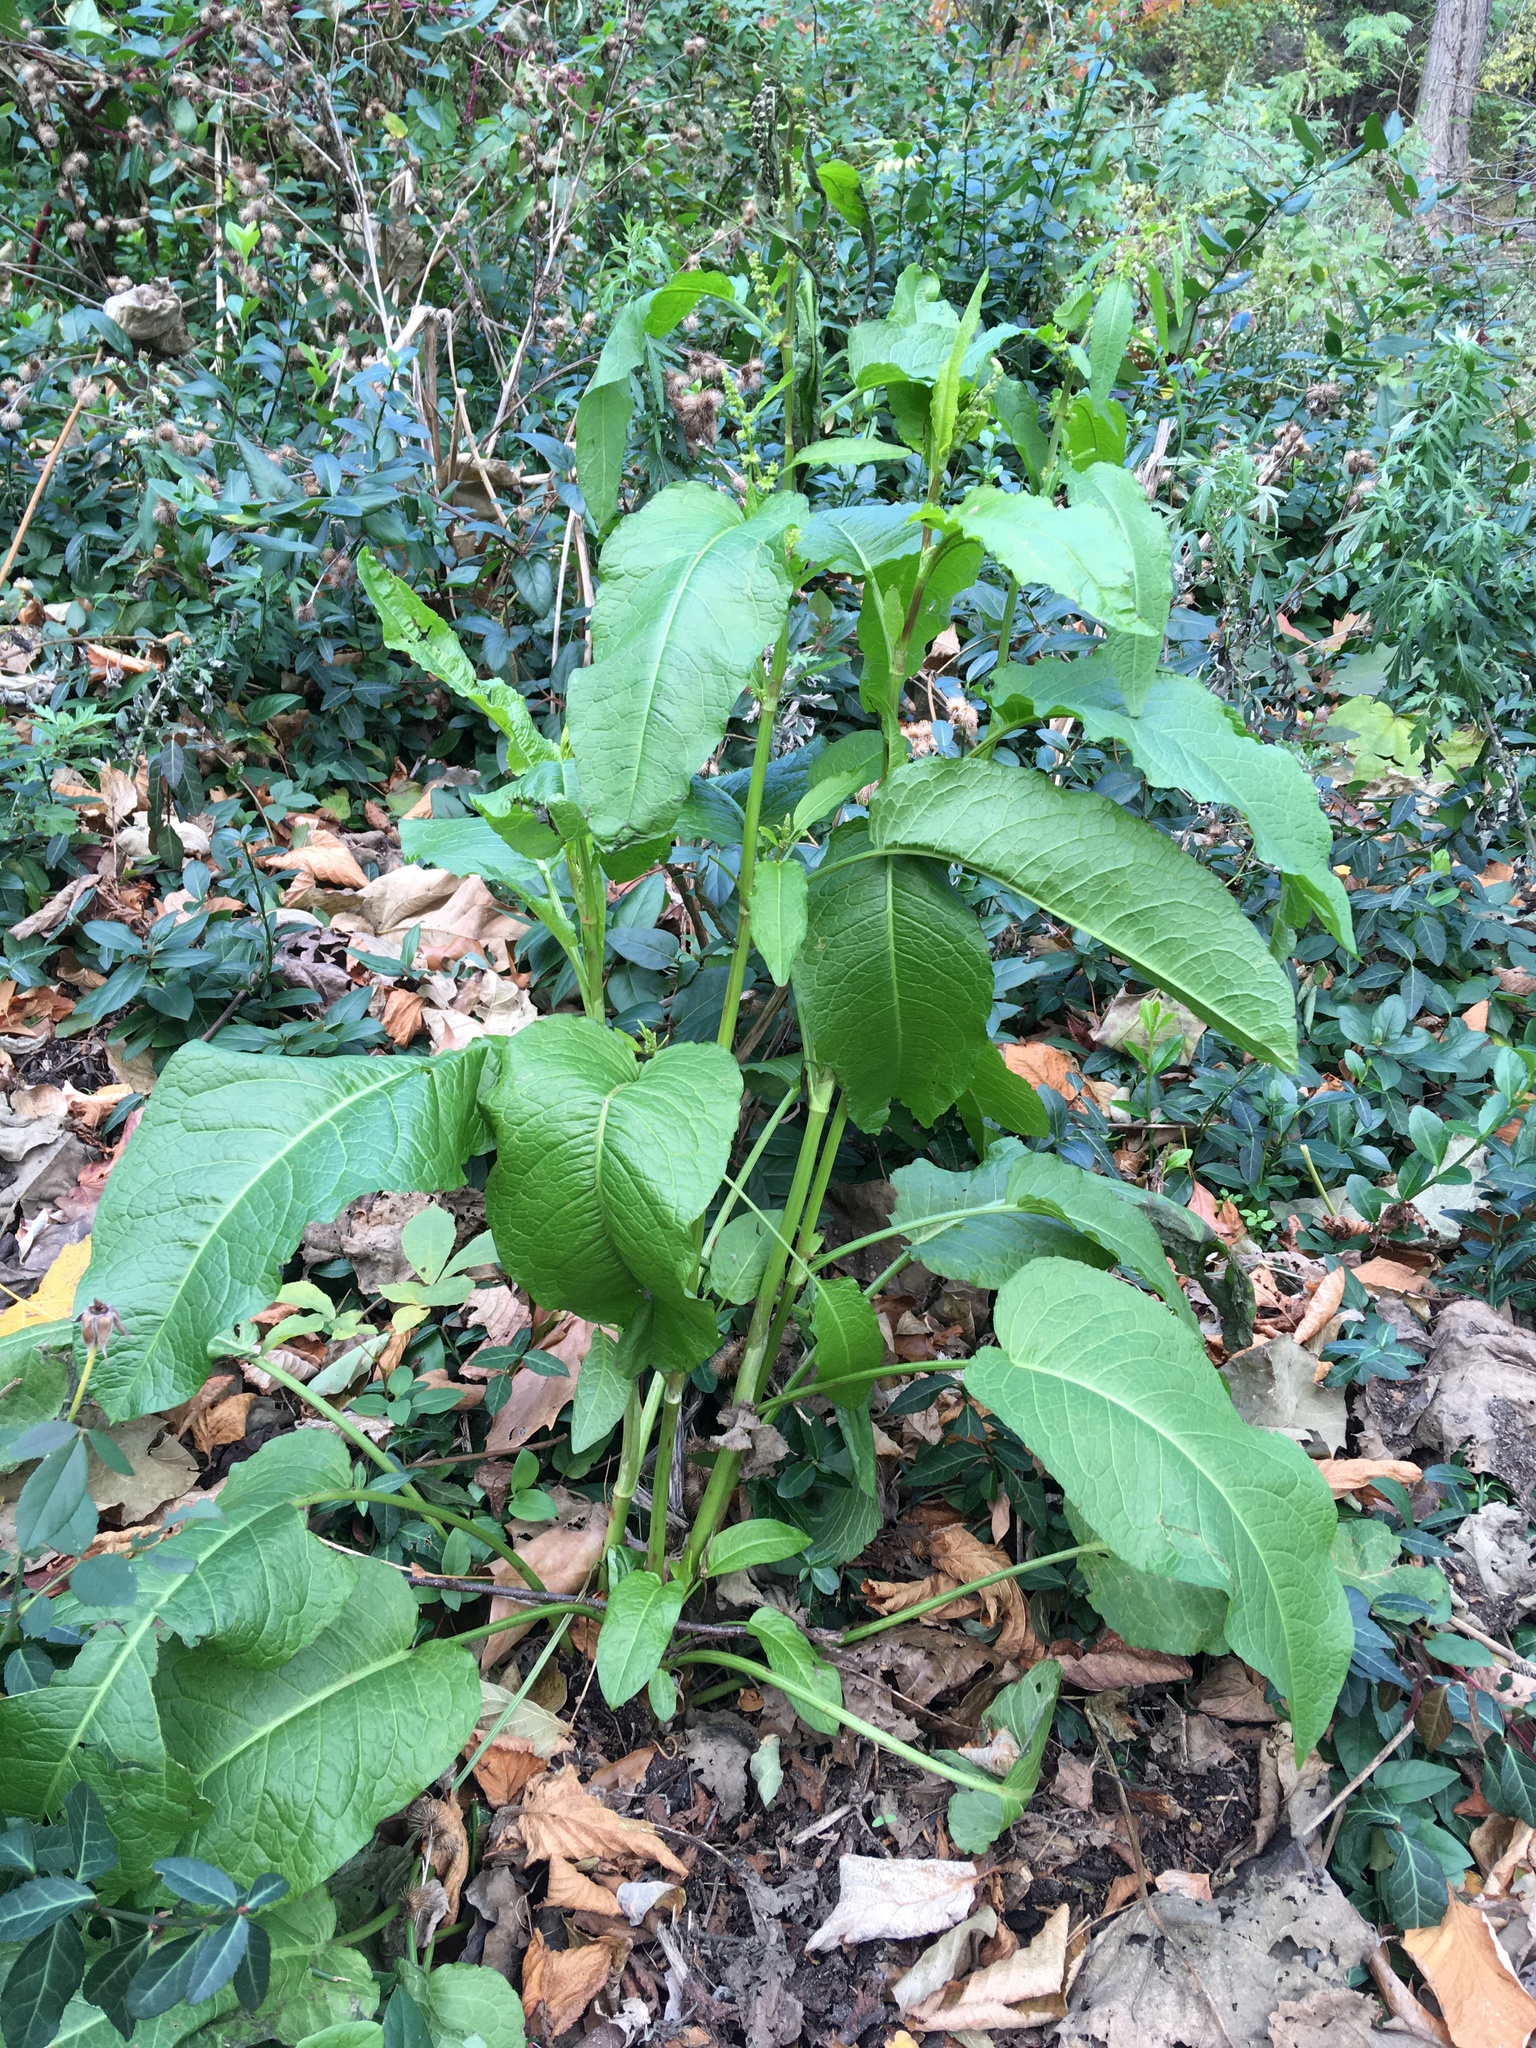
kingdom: Plantae
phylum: Tracheophyta
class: Magnoliopsida
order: Caryophyllales
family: Polygonaceae
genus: Rumex
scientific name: Rumex obtusifolius
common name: Bitter dock
